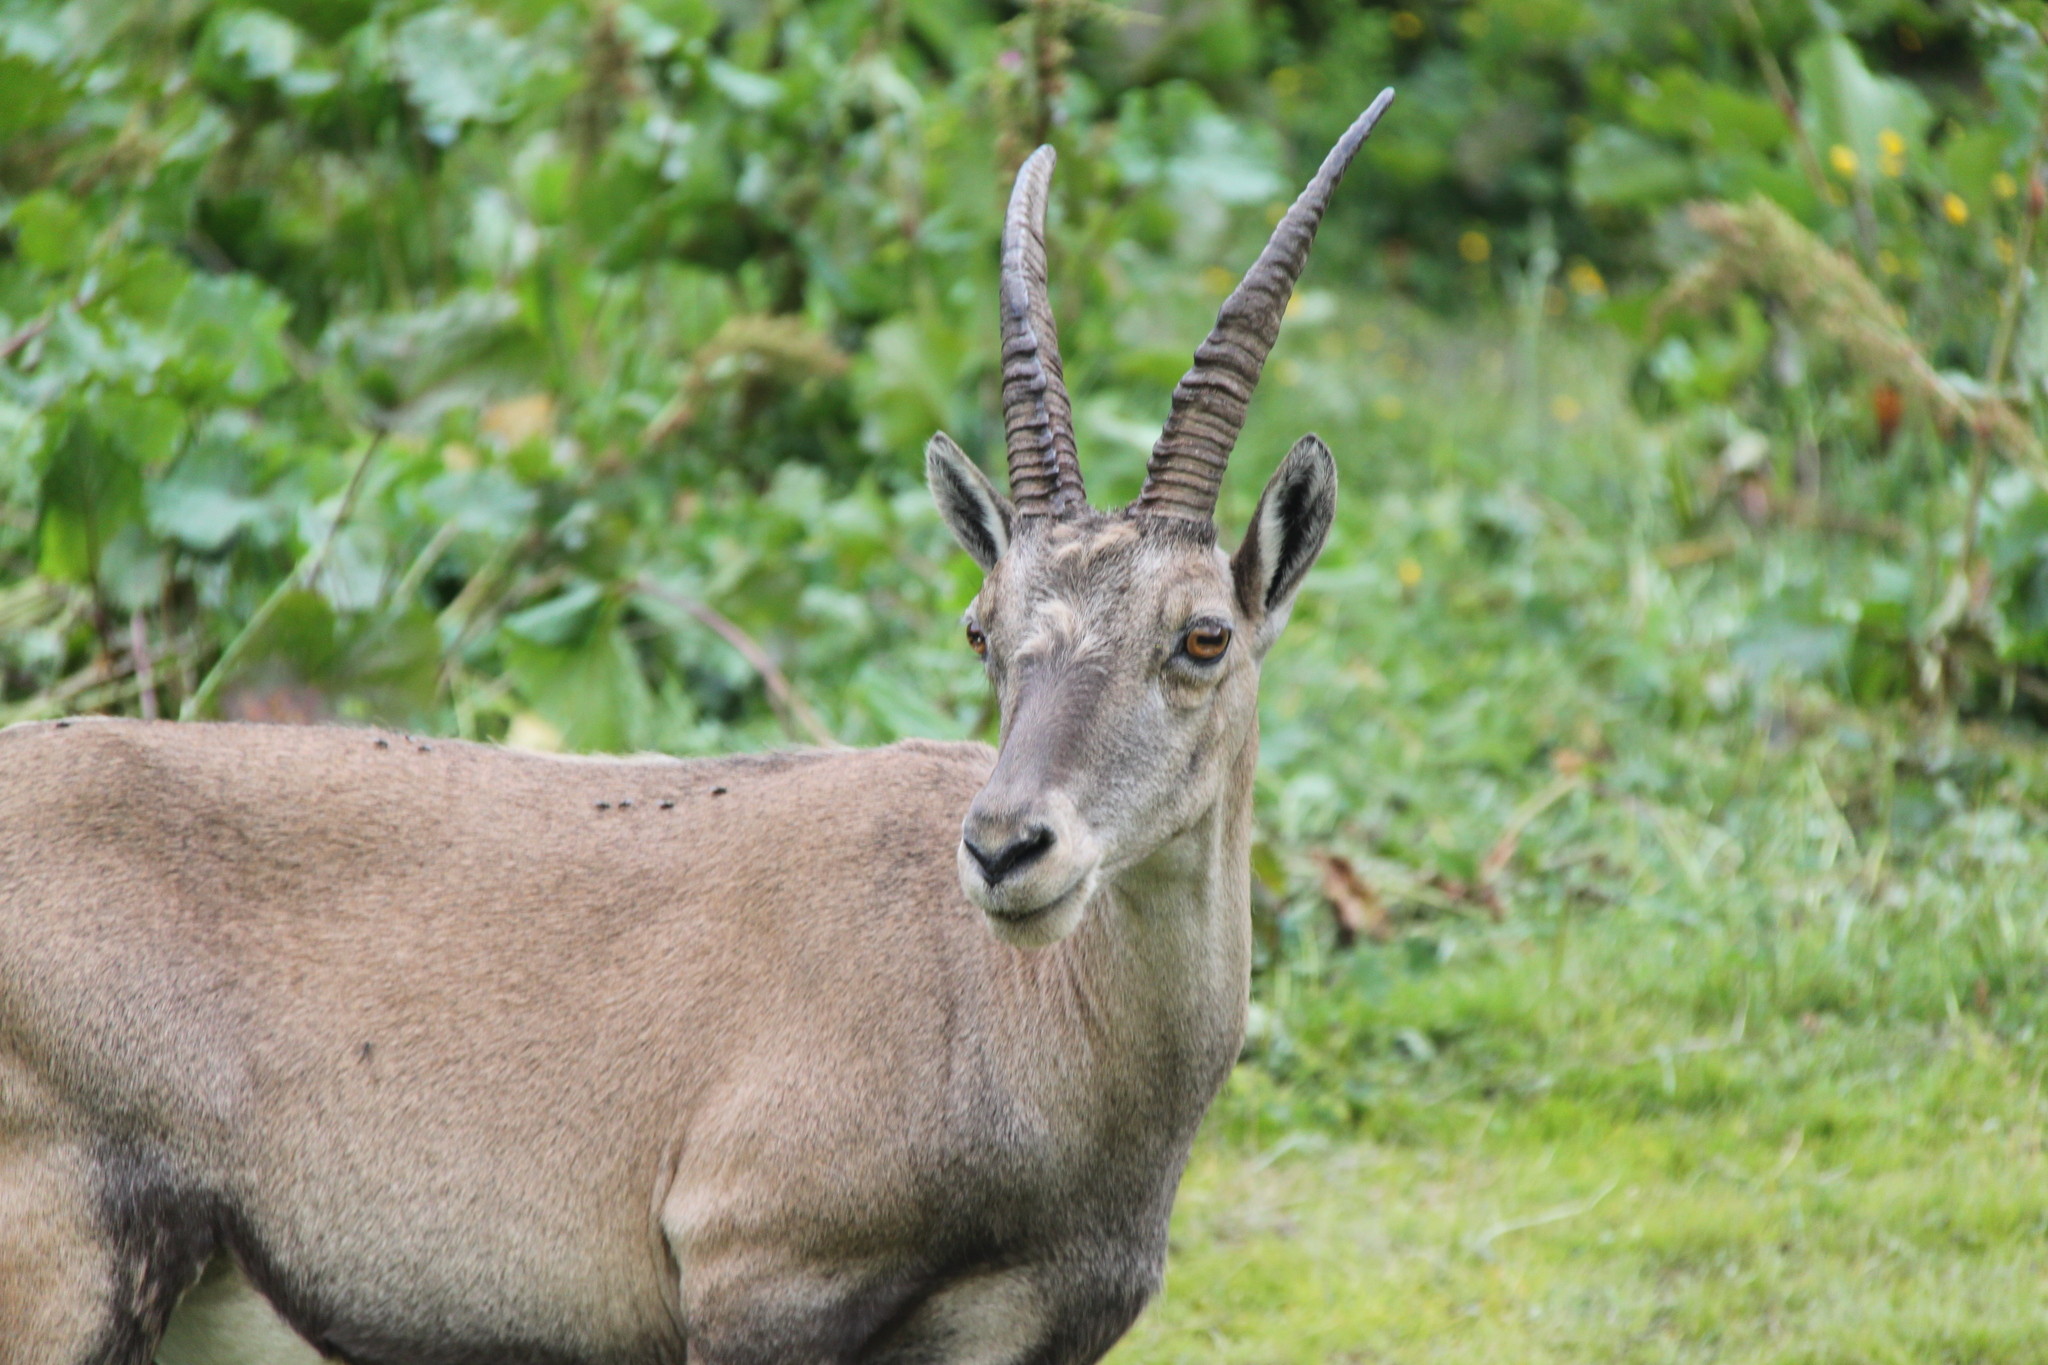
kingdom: Animalia
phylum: Chordata
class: Mammalia
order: Artiodactyla
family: Bovidae
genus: Capra
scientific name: Capra ibex
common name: Alpine ibex
